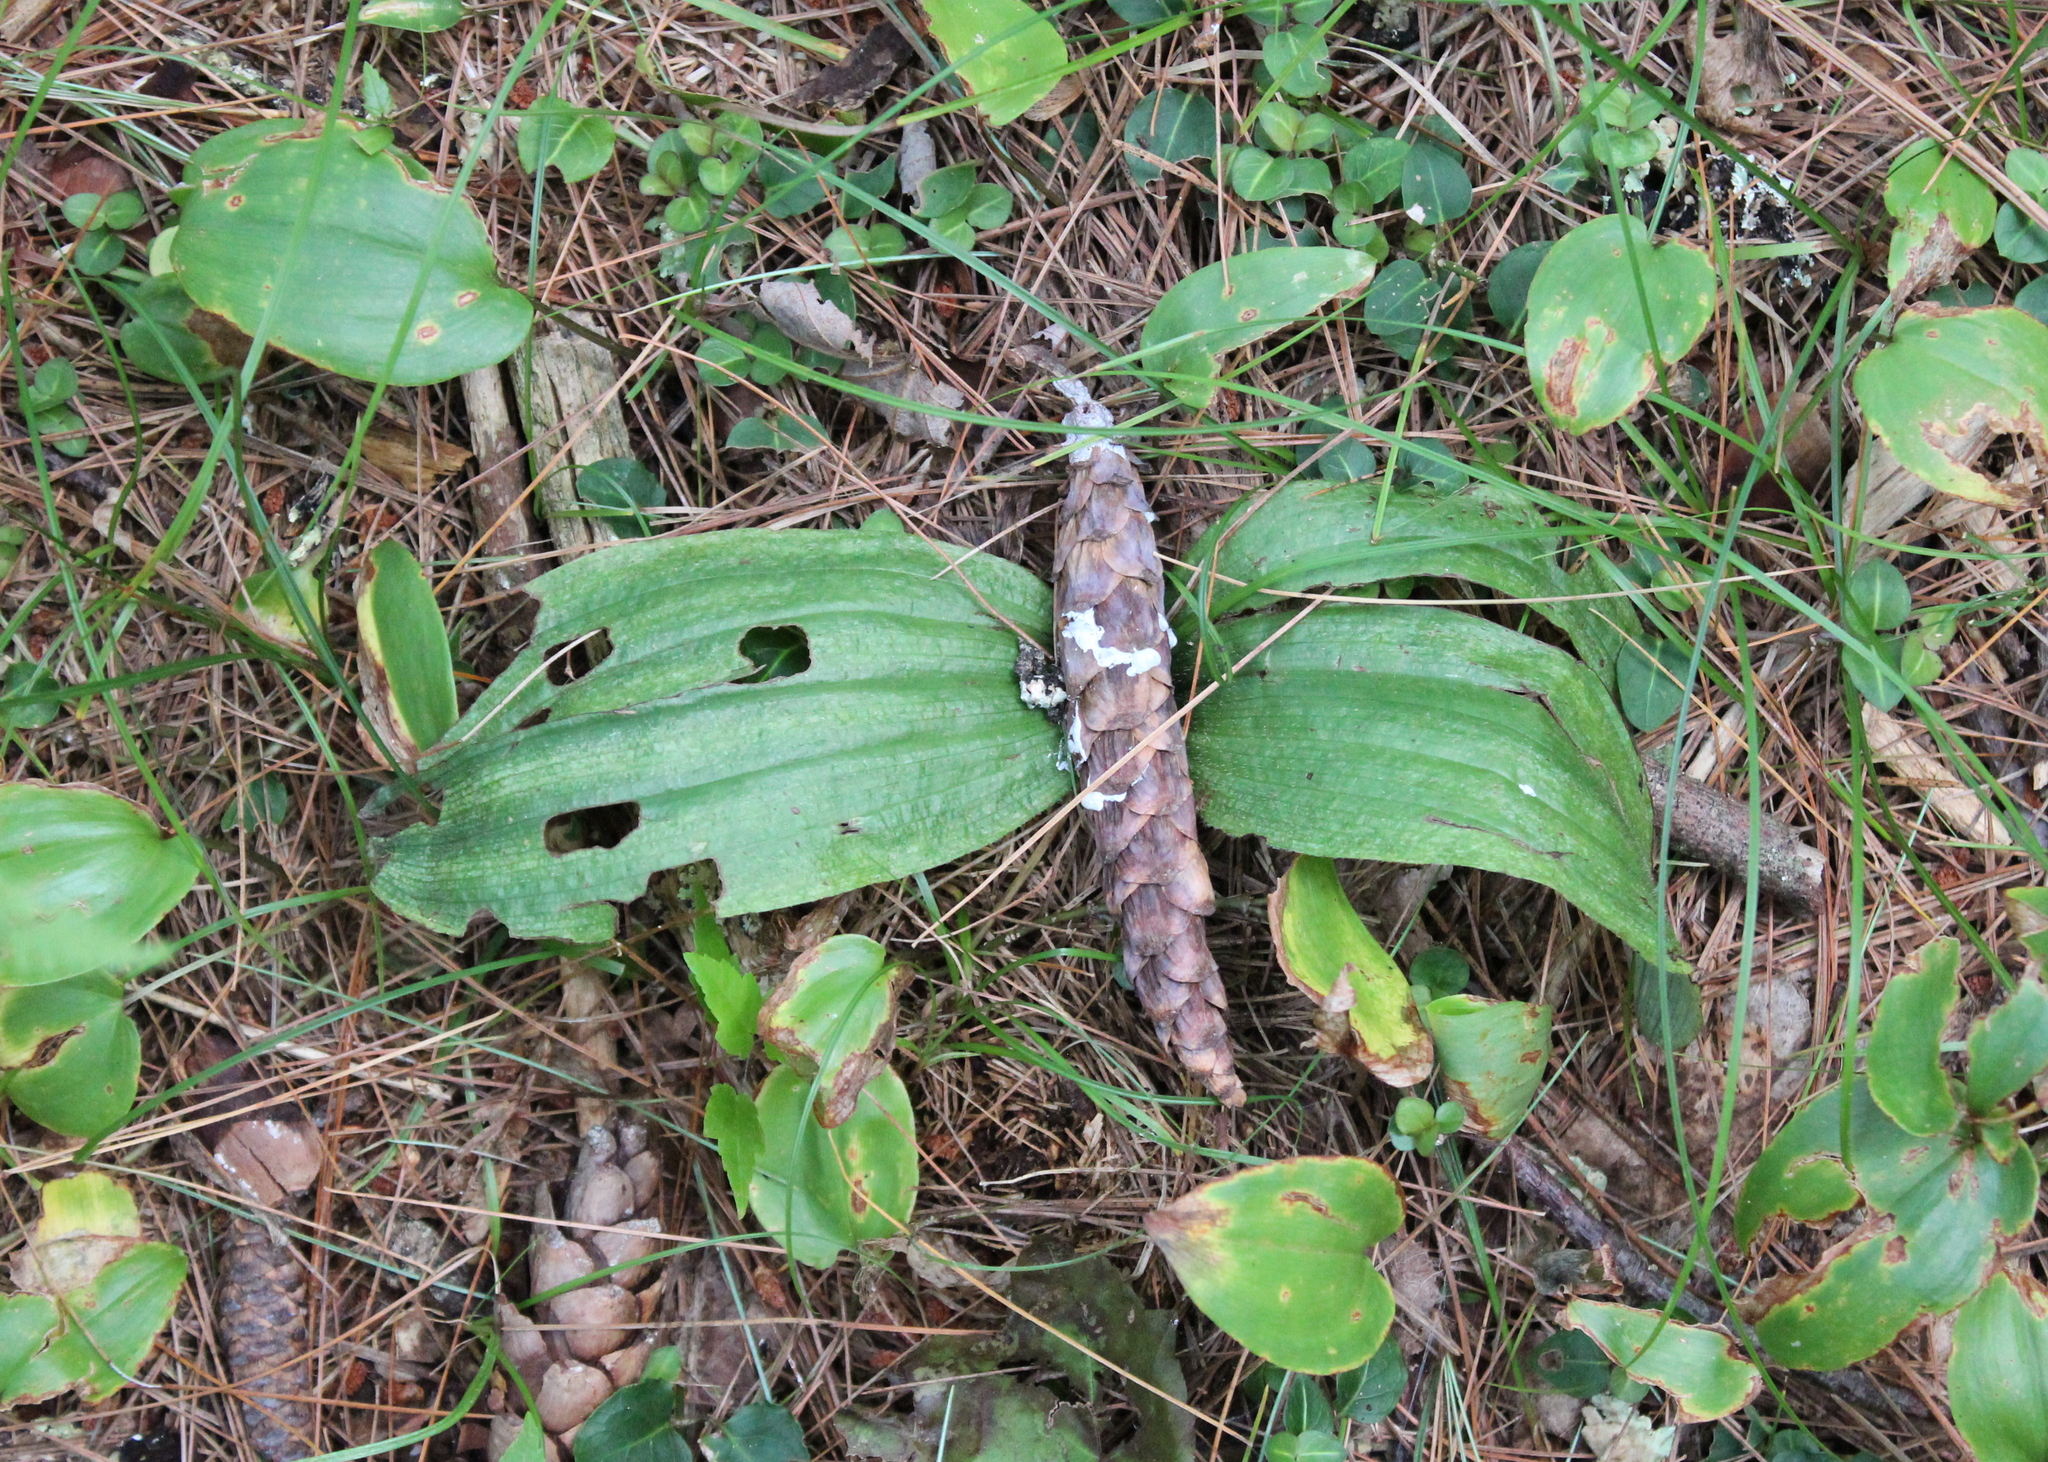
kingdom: Plantae
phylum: Tracheophyta
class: Liliopsida
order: Asparagales
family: Orchidaceae
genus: Cypripedium
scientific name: Cypripedium acaule
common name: Pink lady's-slipper
